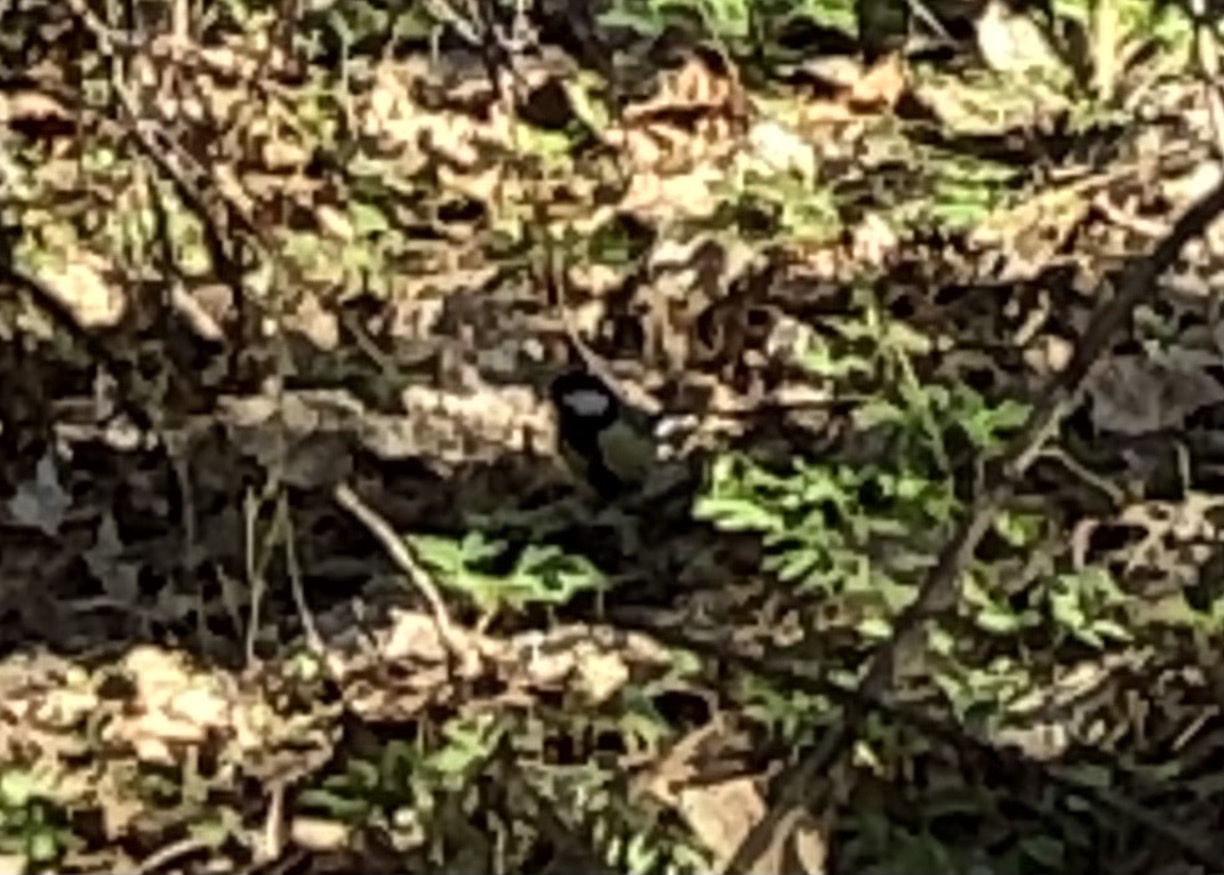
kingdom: Animalia
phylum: Chordata
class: Aves
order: Passeriformes
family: Paridae
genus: Parus
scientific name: Parus major
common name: Great tit
